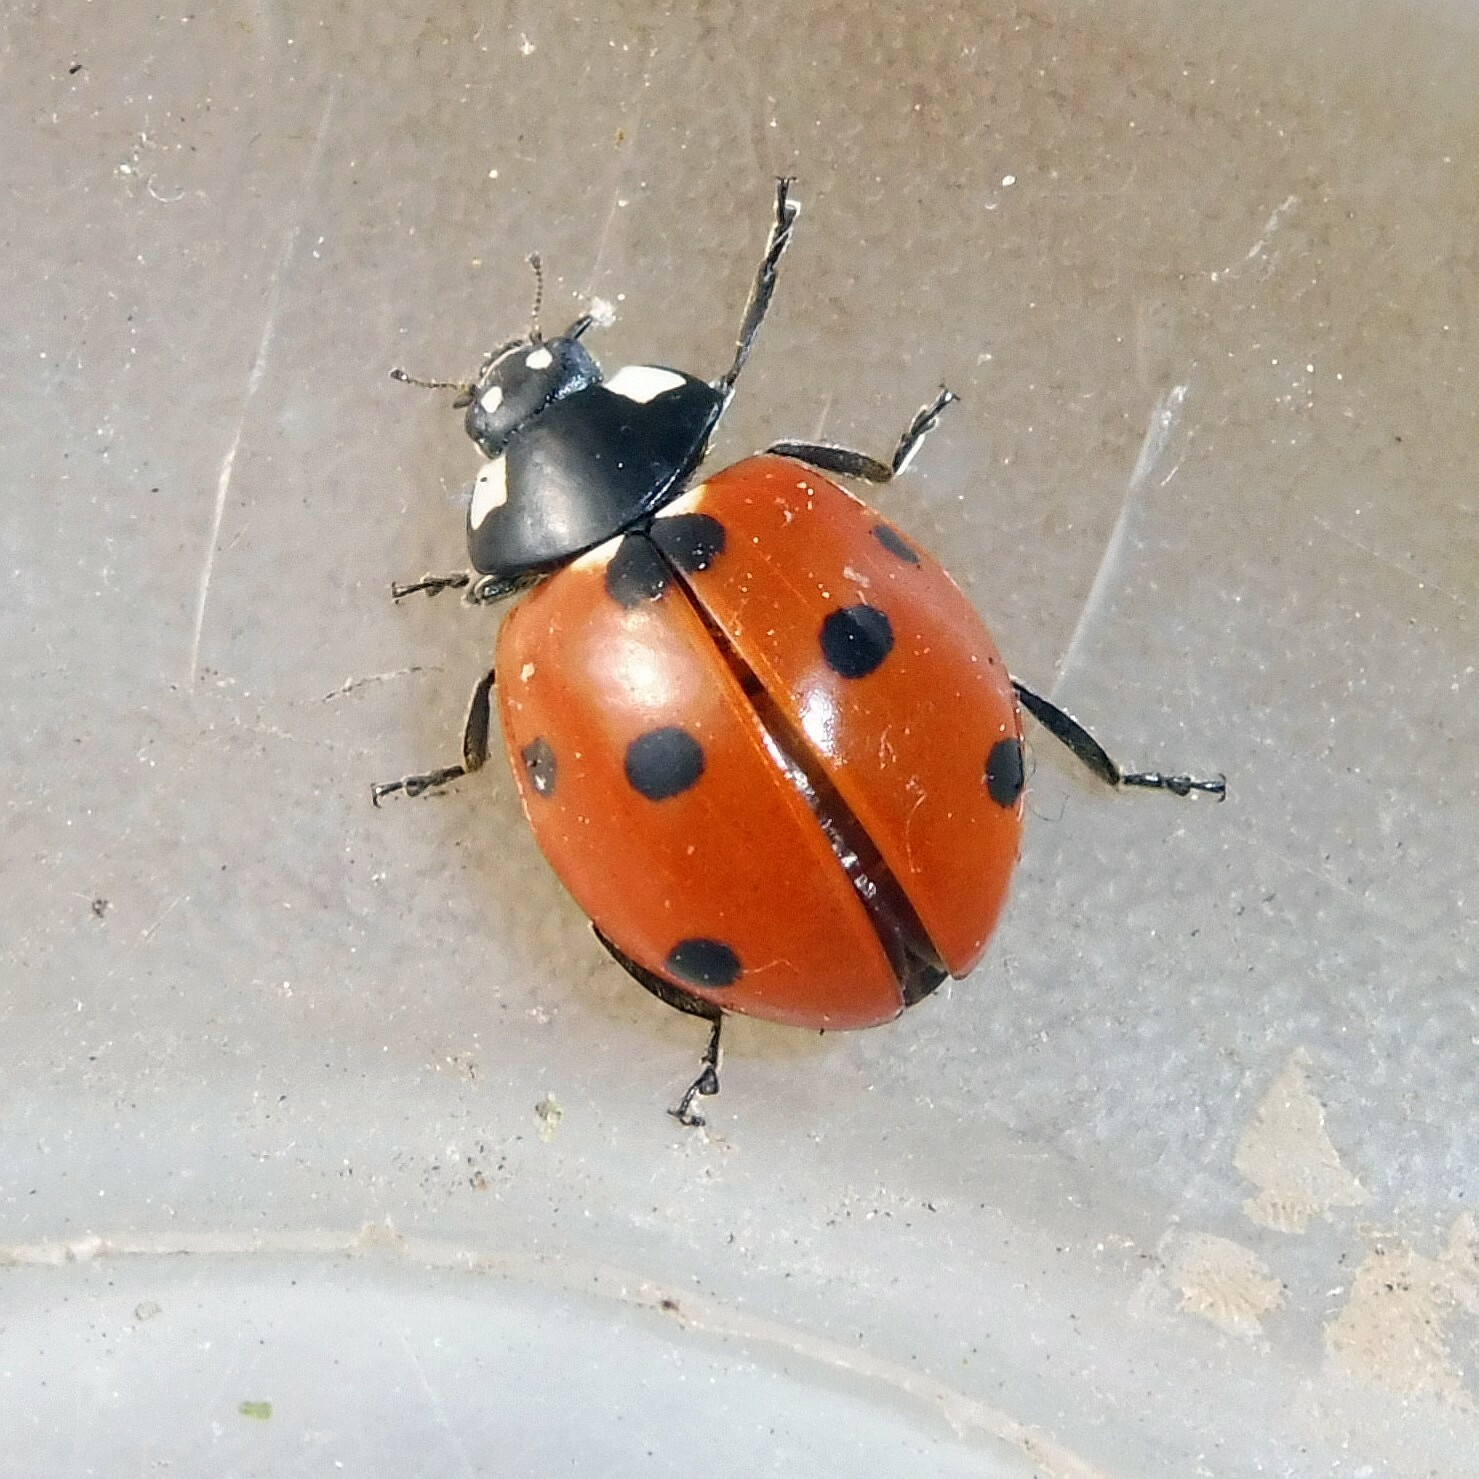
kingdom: Animalia
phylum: Arthropoda
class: Insecta
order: Coleoptera
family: Coccinellidae
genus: Coccinella
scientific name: Coccinella septempunctata
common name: Sevenspotted lady beetle
